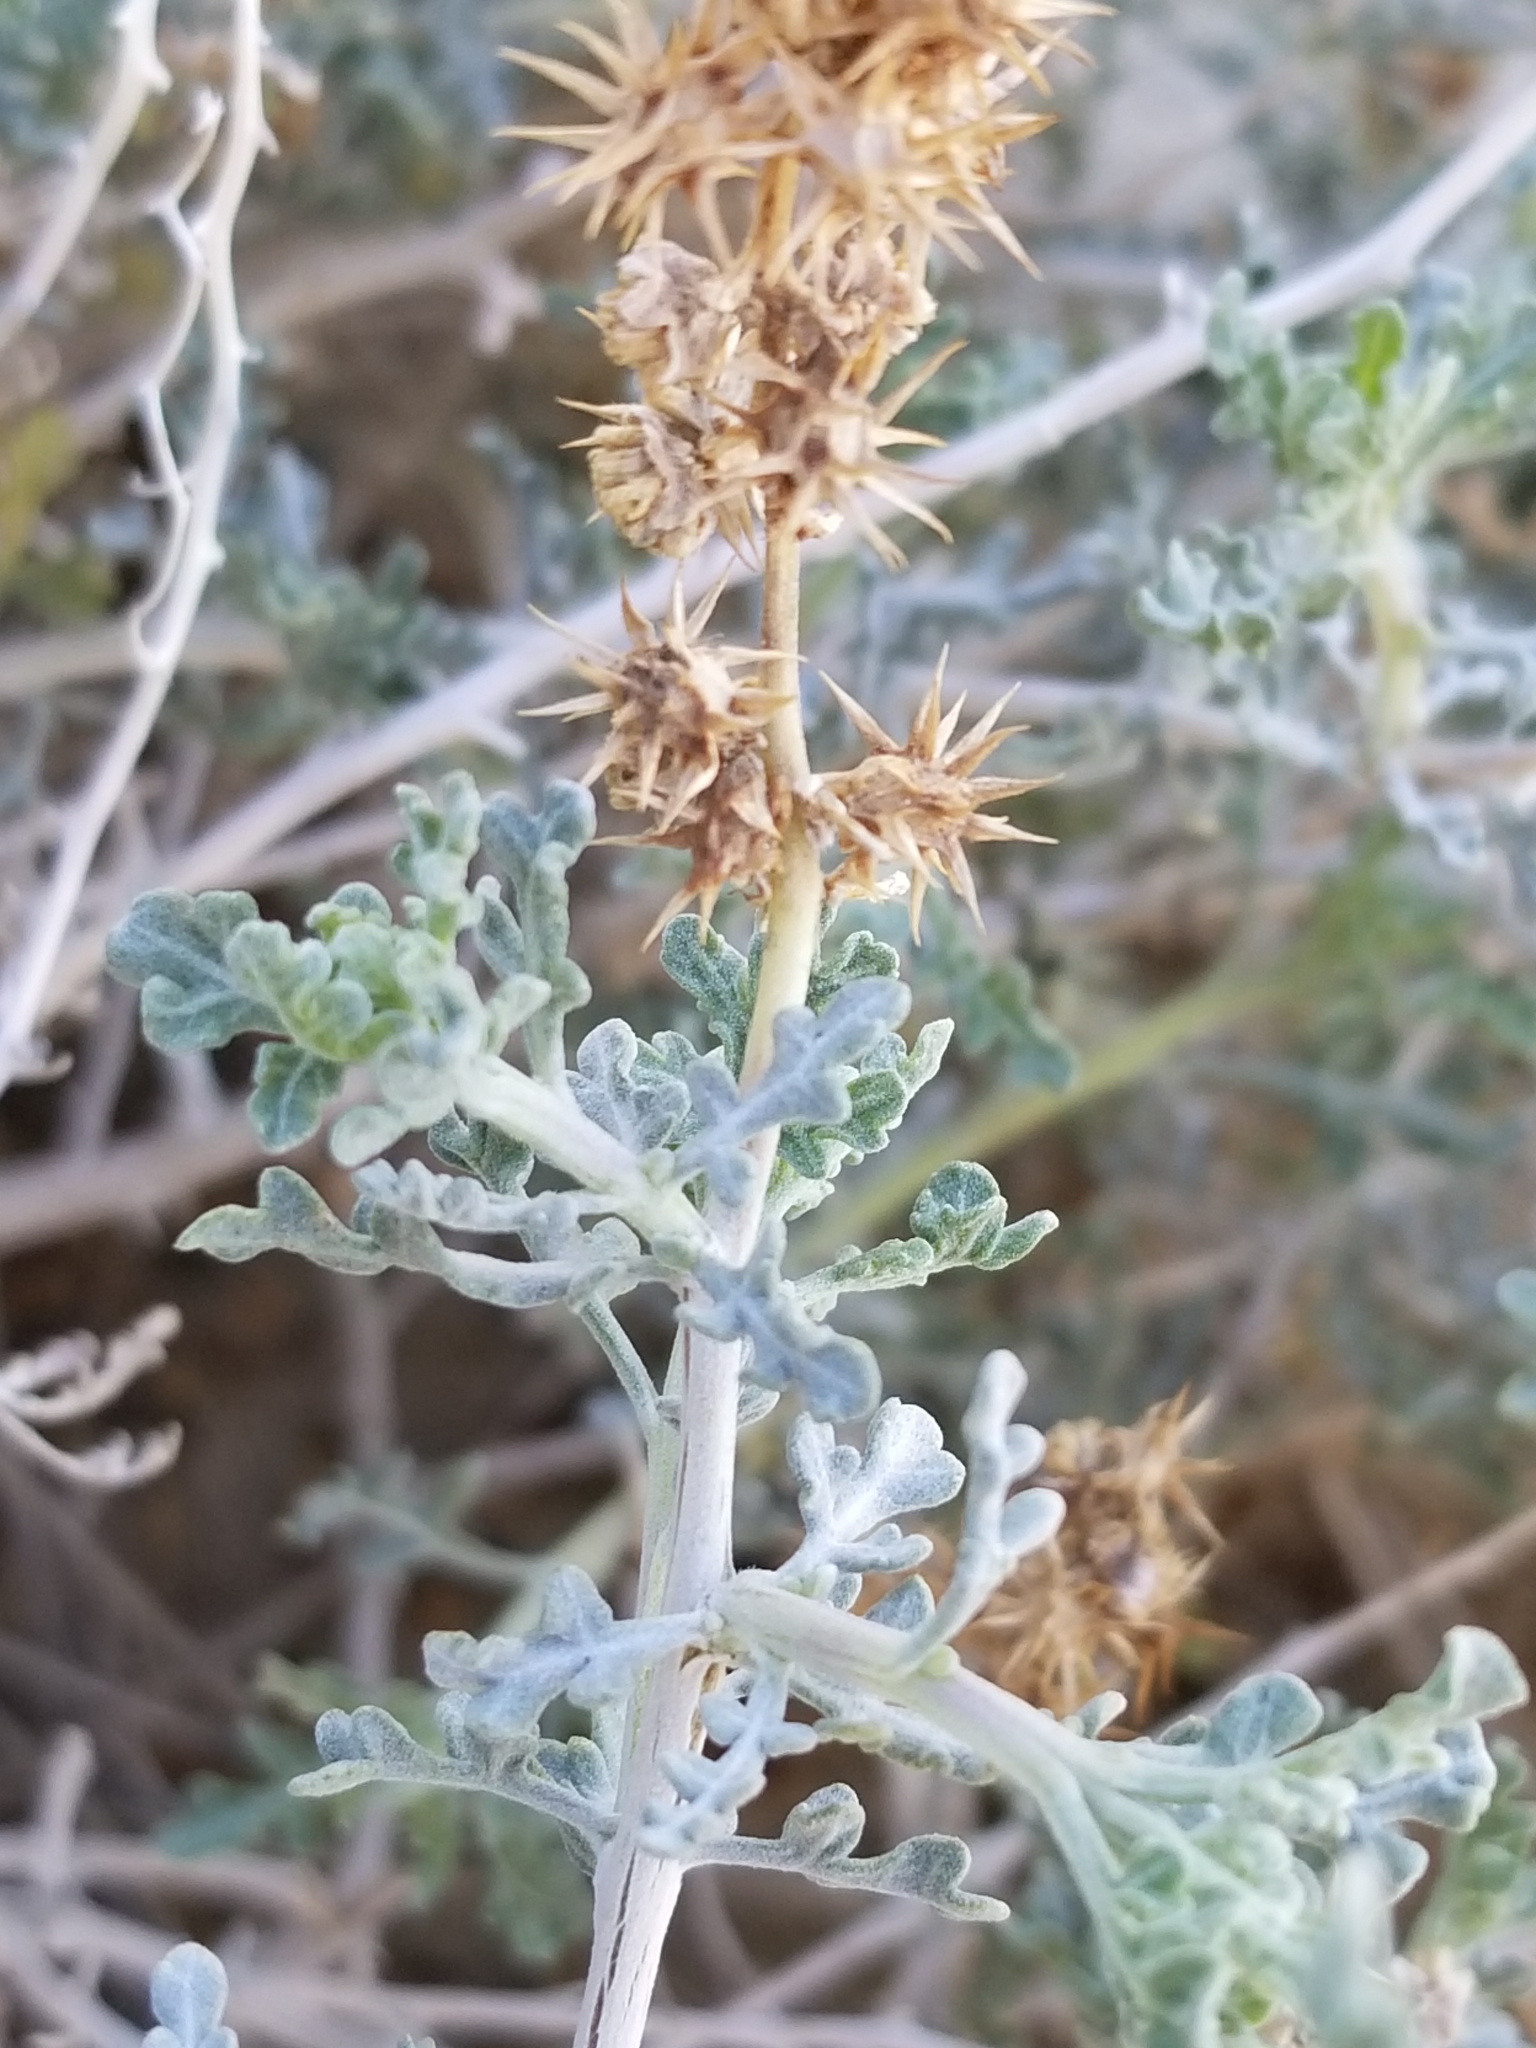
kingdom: Plantae
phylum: Tracheophyta
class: Magnoliopsida
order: Asterales
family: Asteraceae
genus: Ambrosia
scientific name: Ambrosia dumosa
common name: Bur-sage
